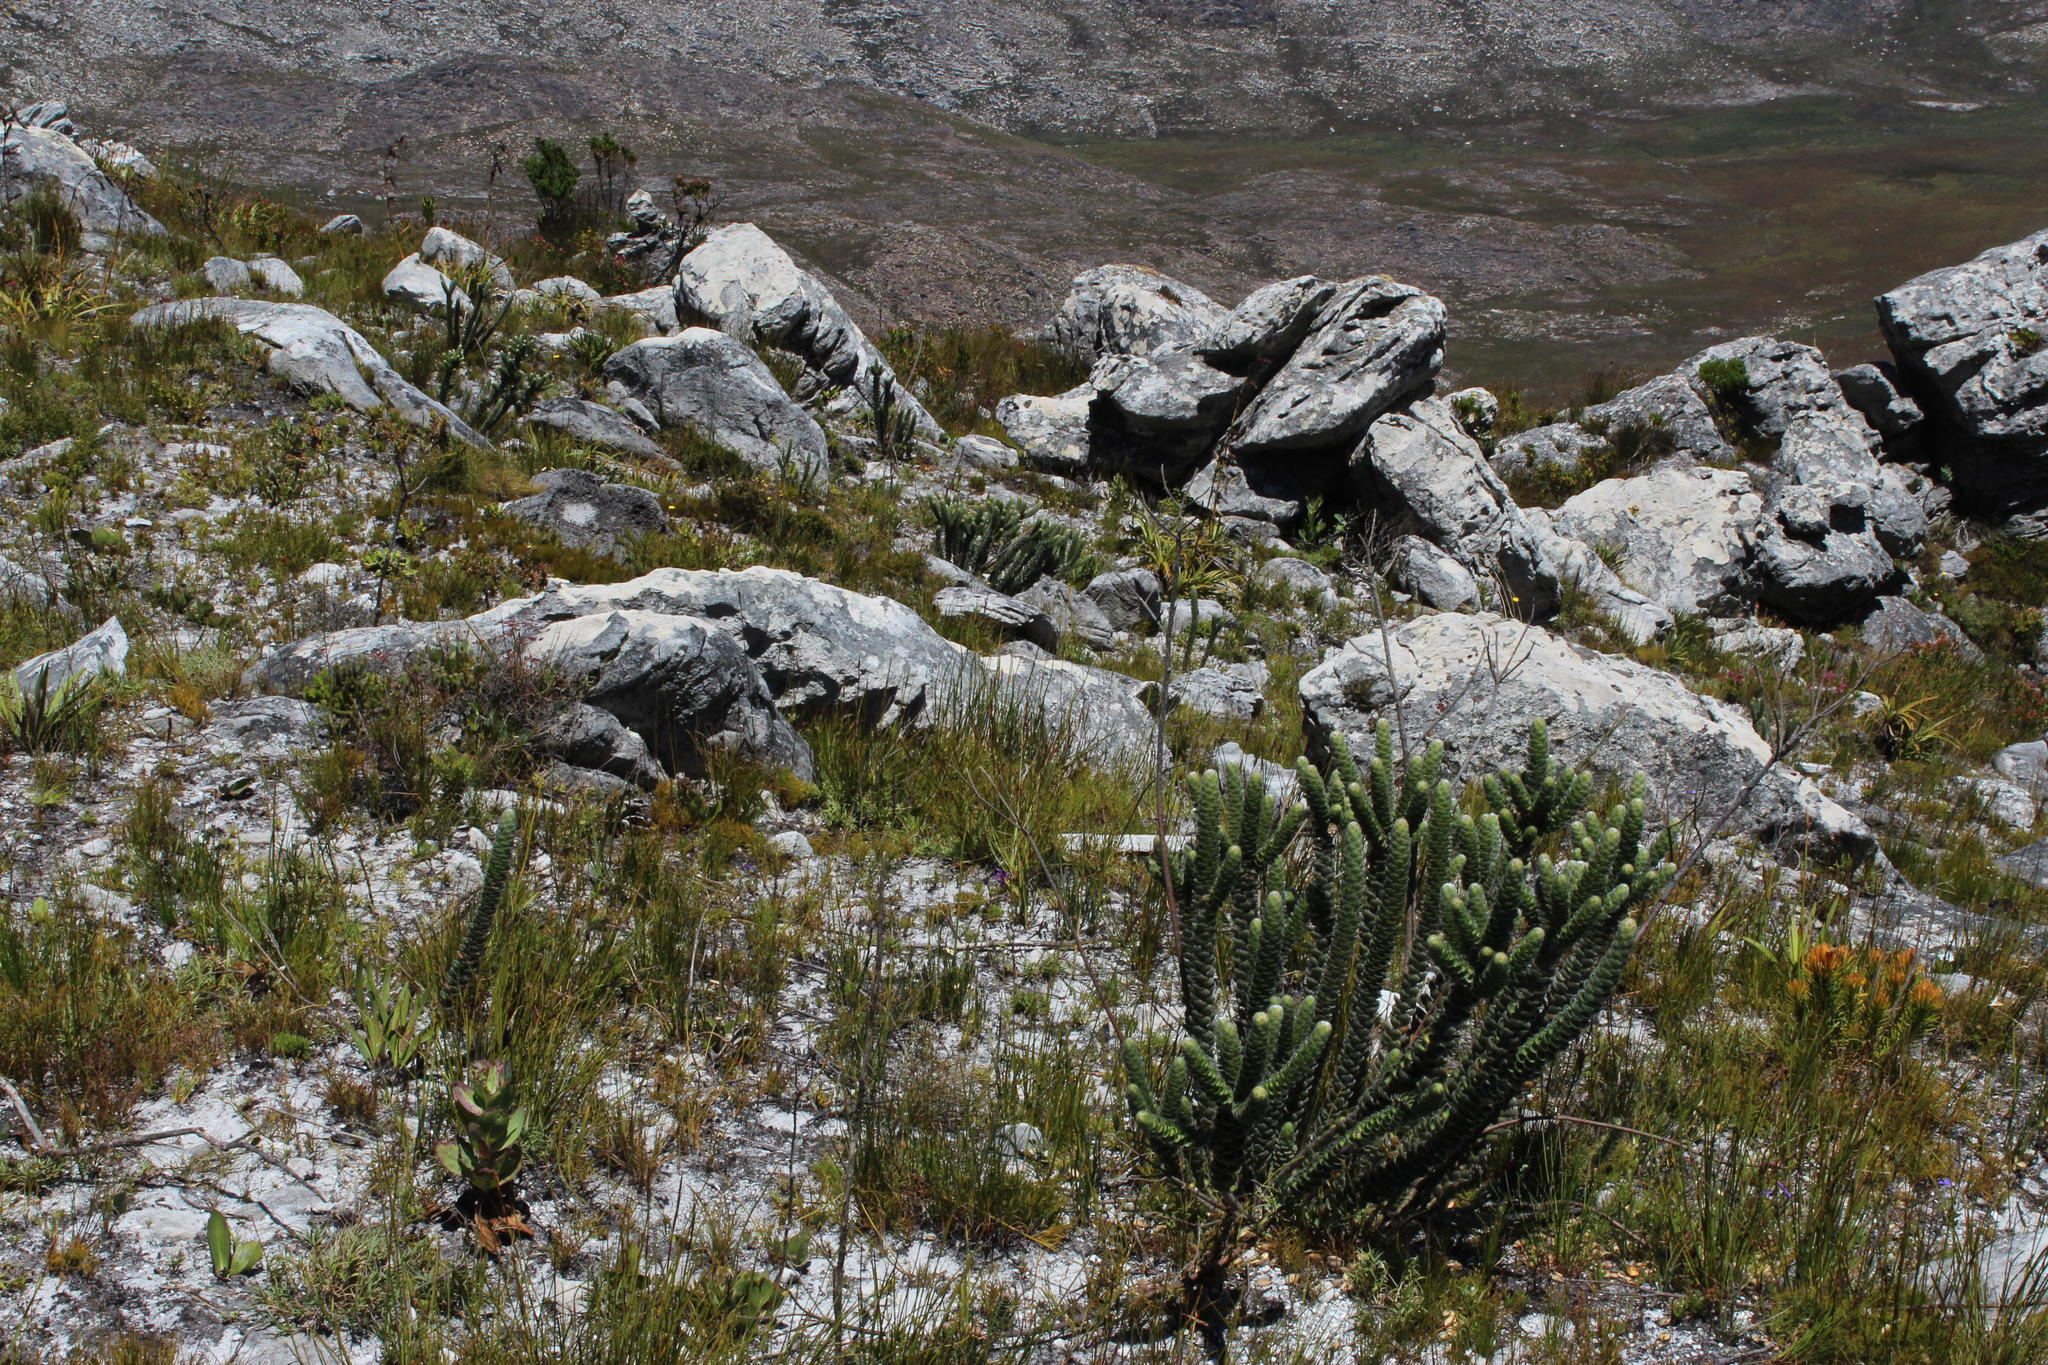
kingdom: Plantae
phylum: Tracheophyta
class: Magnoliopsida
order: Fabales
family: Fabaceae
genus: Liparia
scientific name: Liparia vestita
